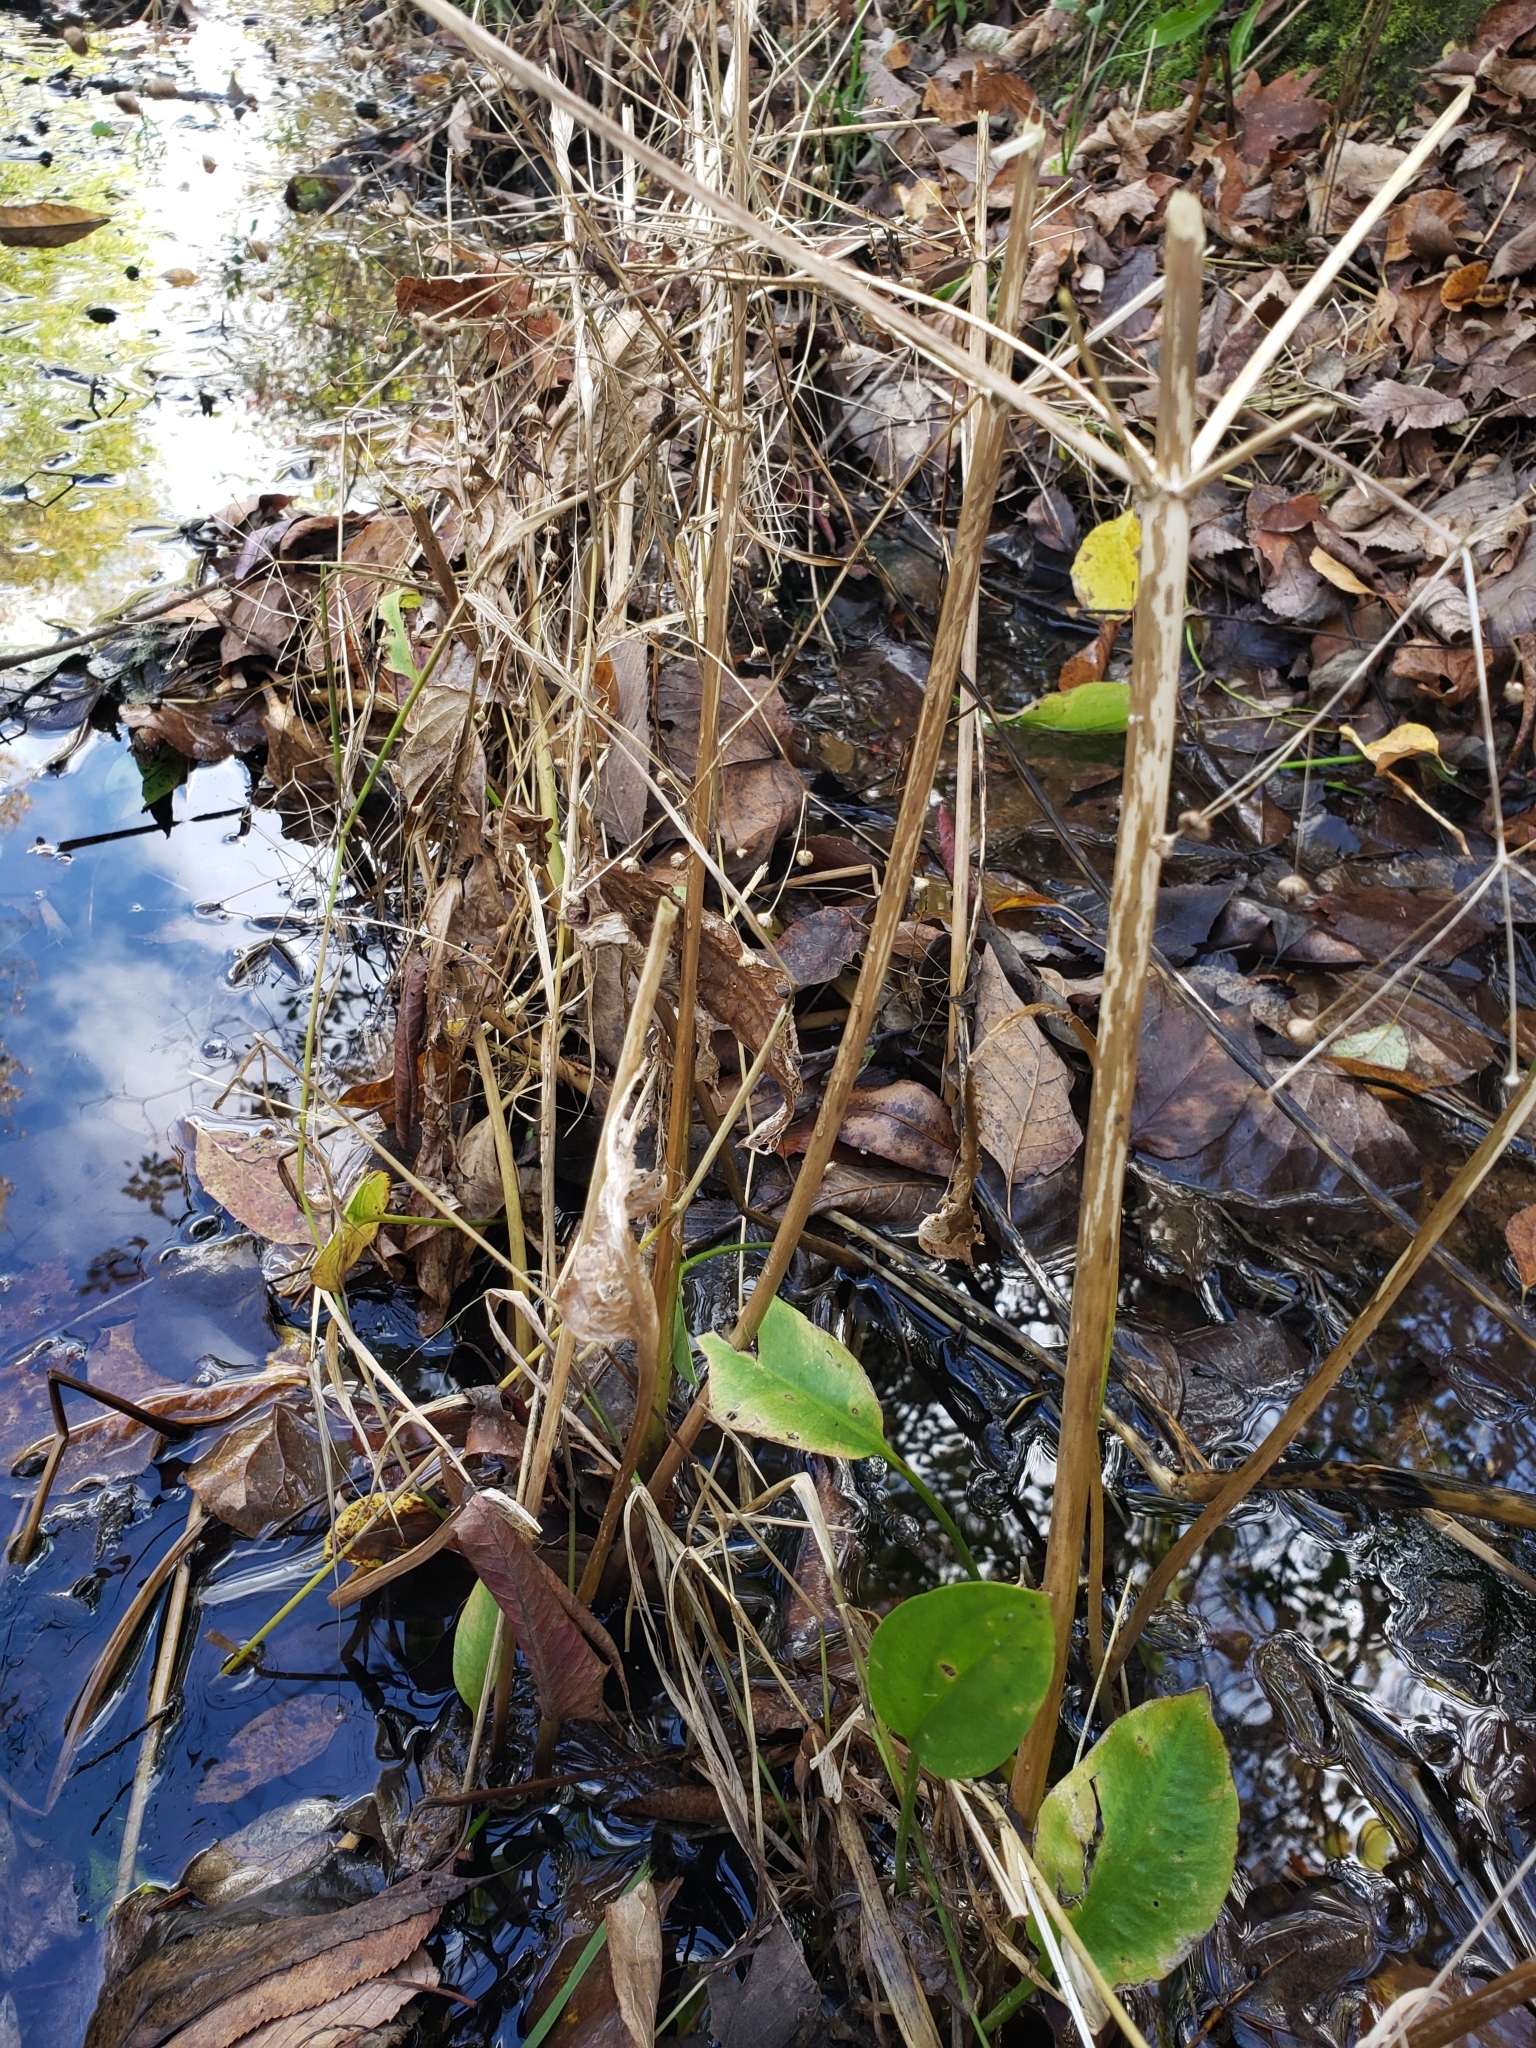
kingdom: Plantae
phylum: Tracheophyta
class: Liliopsida
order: Alismatales
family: Alismataceae
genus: Alisma
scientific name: Alisma triviale
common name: Northern water-plantain
